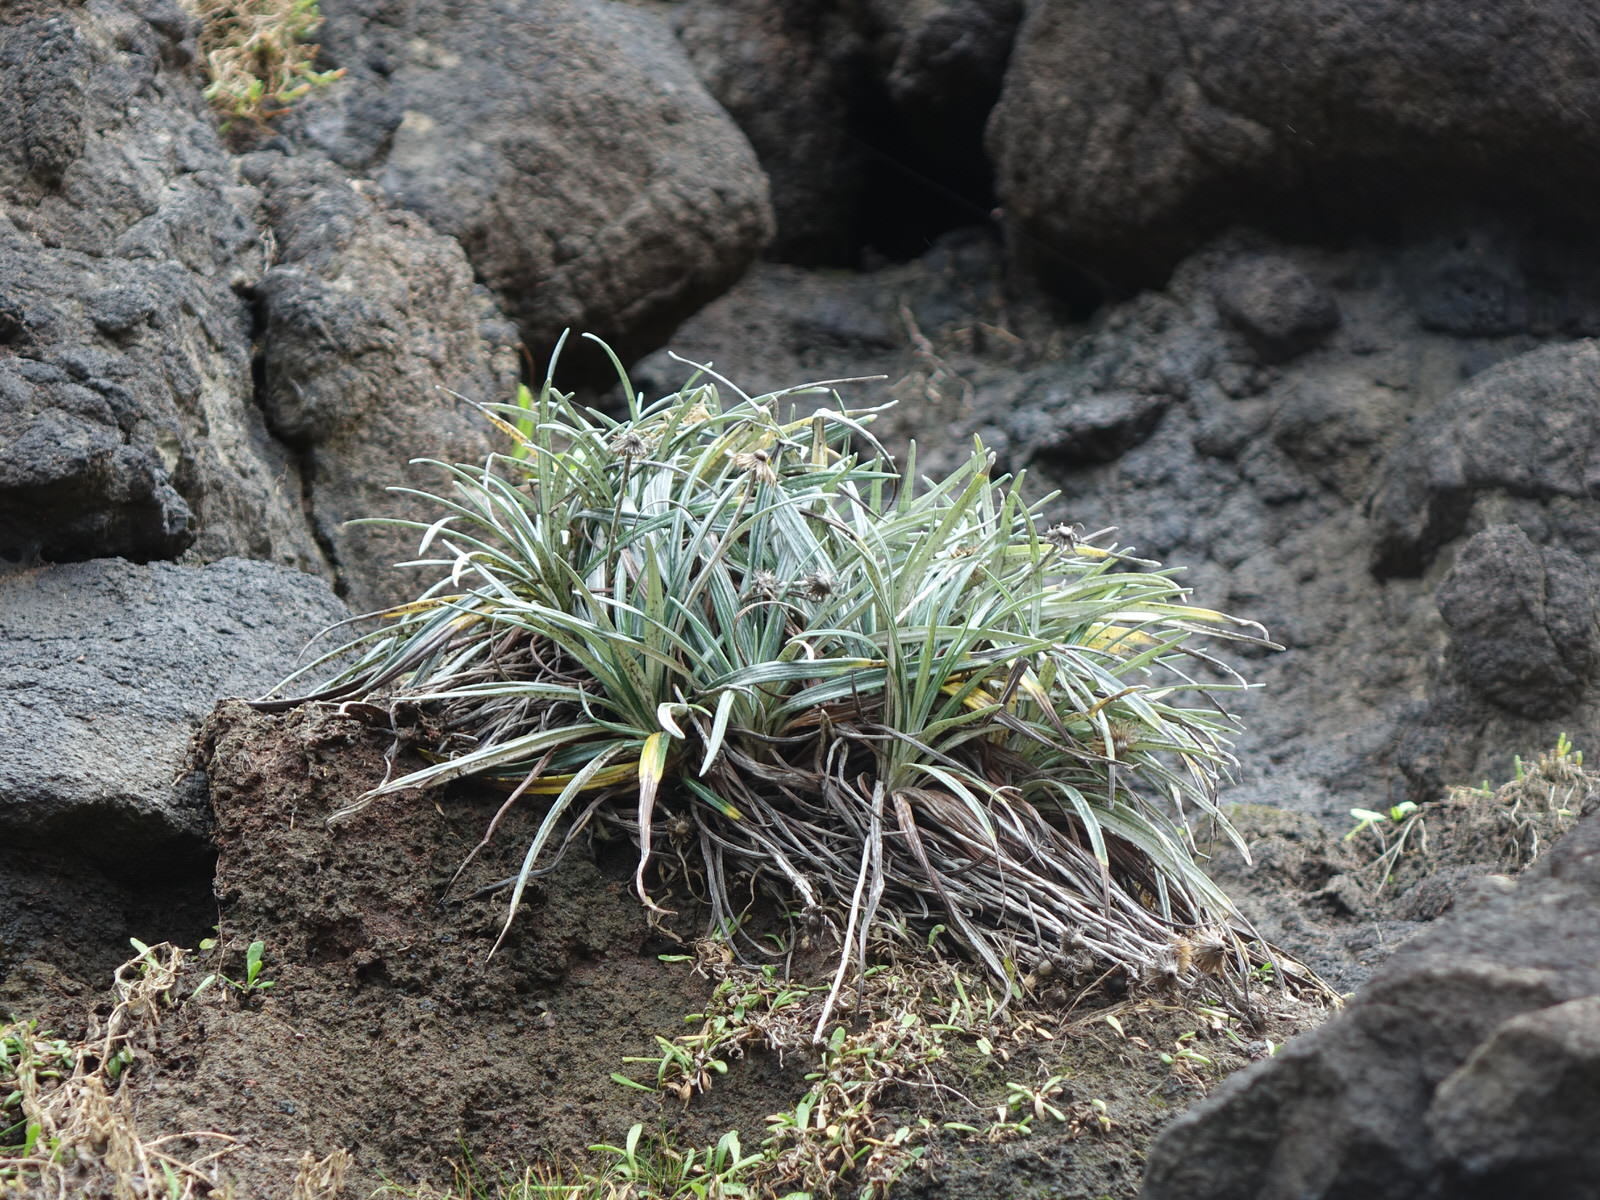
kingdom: Plantae
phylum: Tracheophyta
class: Magnoliopsida
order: Asterales
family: Asteraceae
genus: Celmisia
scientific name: Celmisia major
